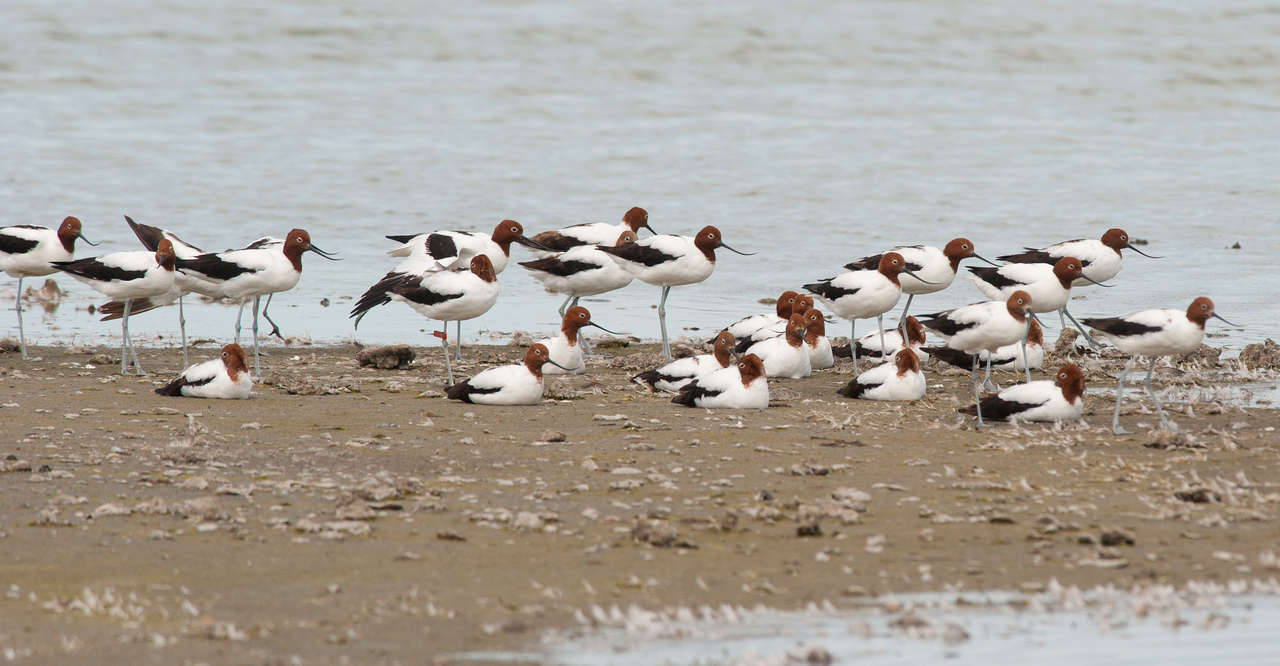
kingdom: Animalia
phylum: Chordata
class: Aves
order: Charadriiformes
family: Recurvirostridae
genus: Recurvirostra
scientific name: Recurvirostra novaehollandiae
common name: Red-necked avocet
